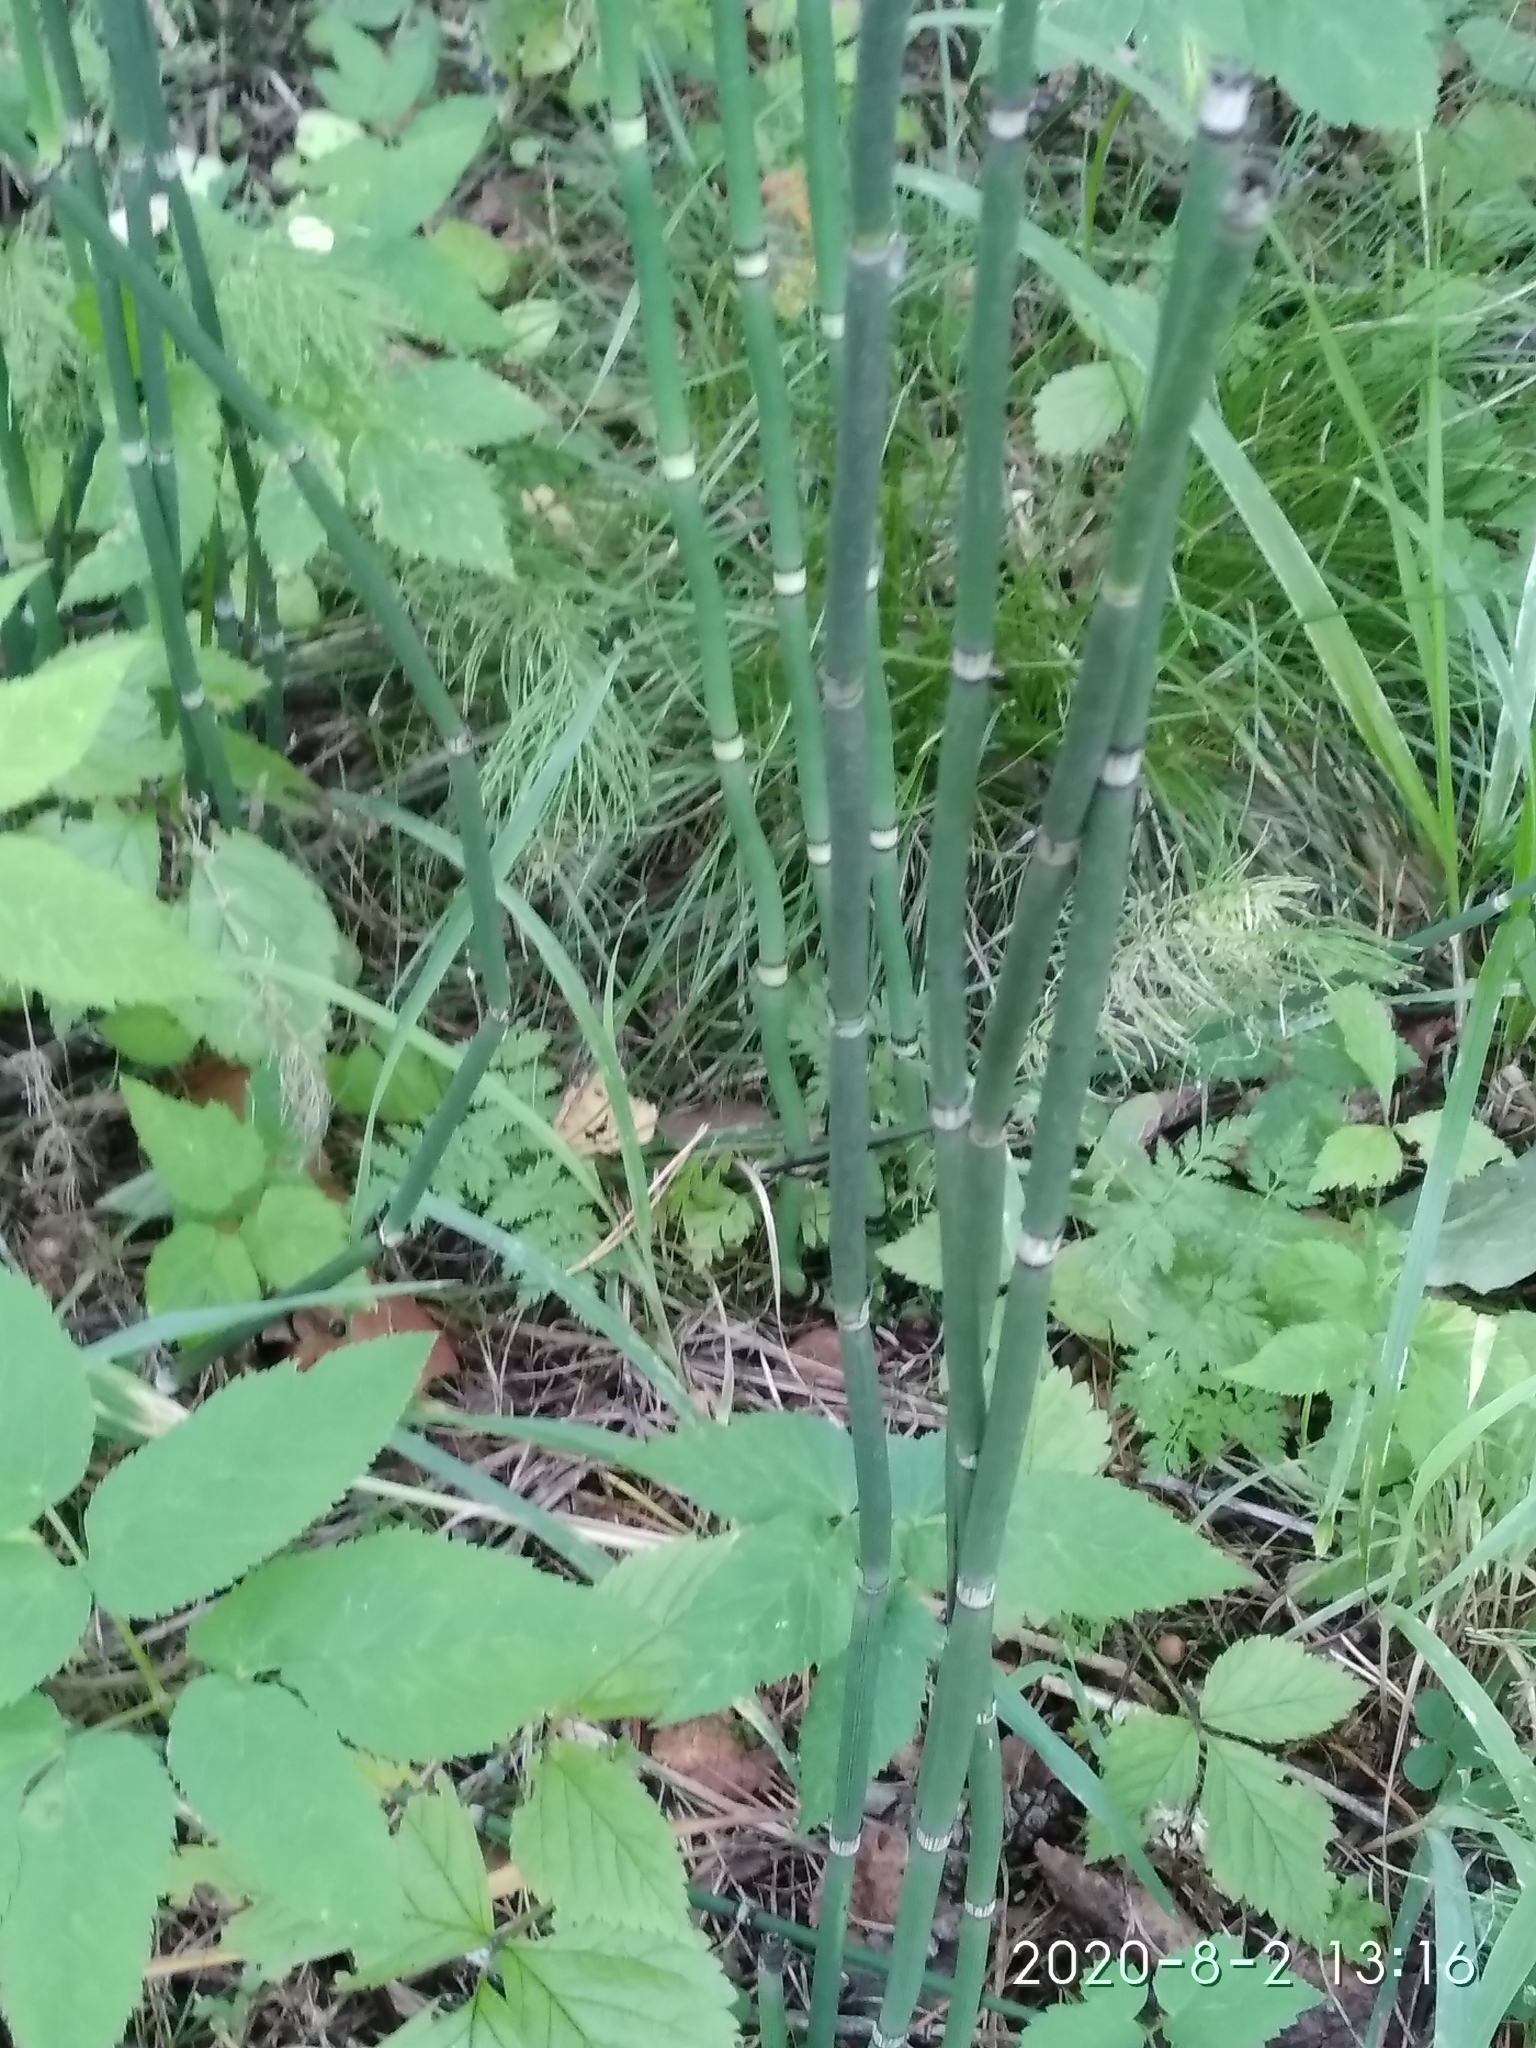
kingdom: Plantae
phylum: Tracheophyta
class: Polypodiopsida
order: Equisetales
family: Equisetaceae
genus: Equisetum
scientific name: Equisetum hyemale
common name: Rough horsetail
